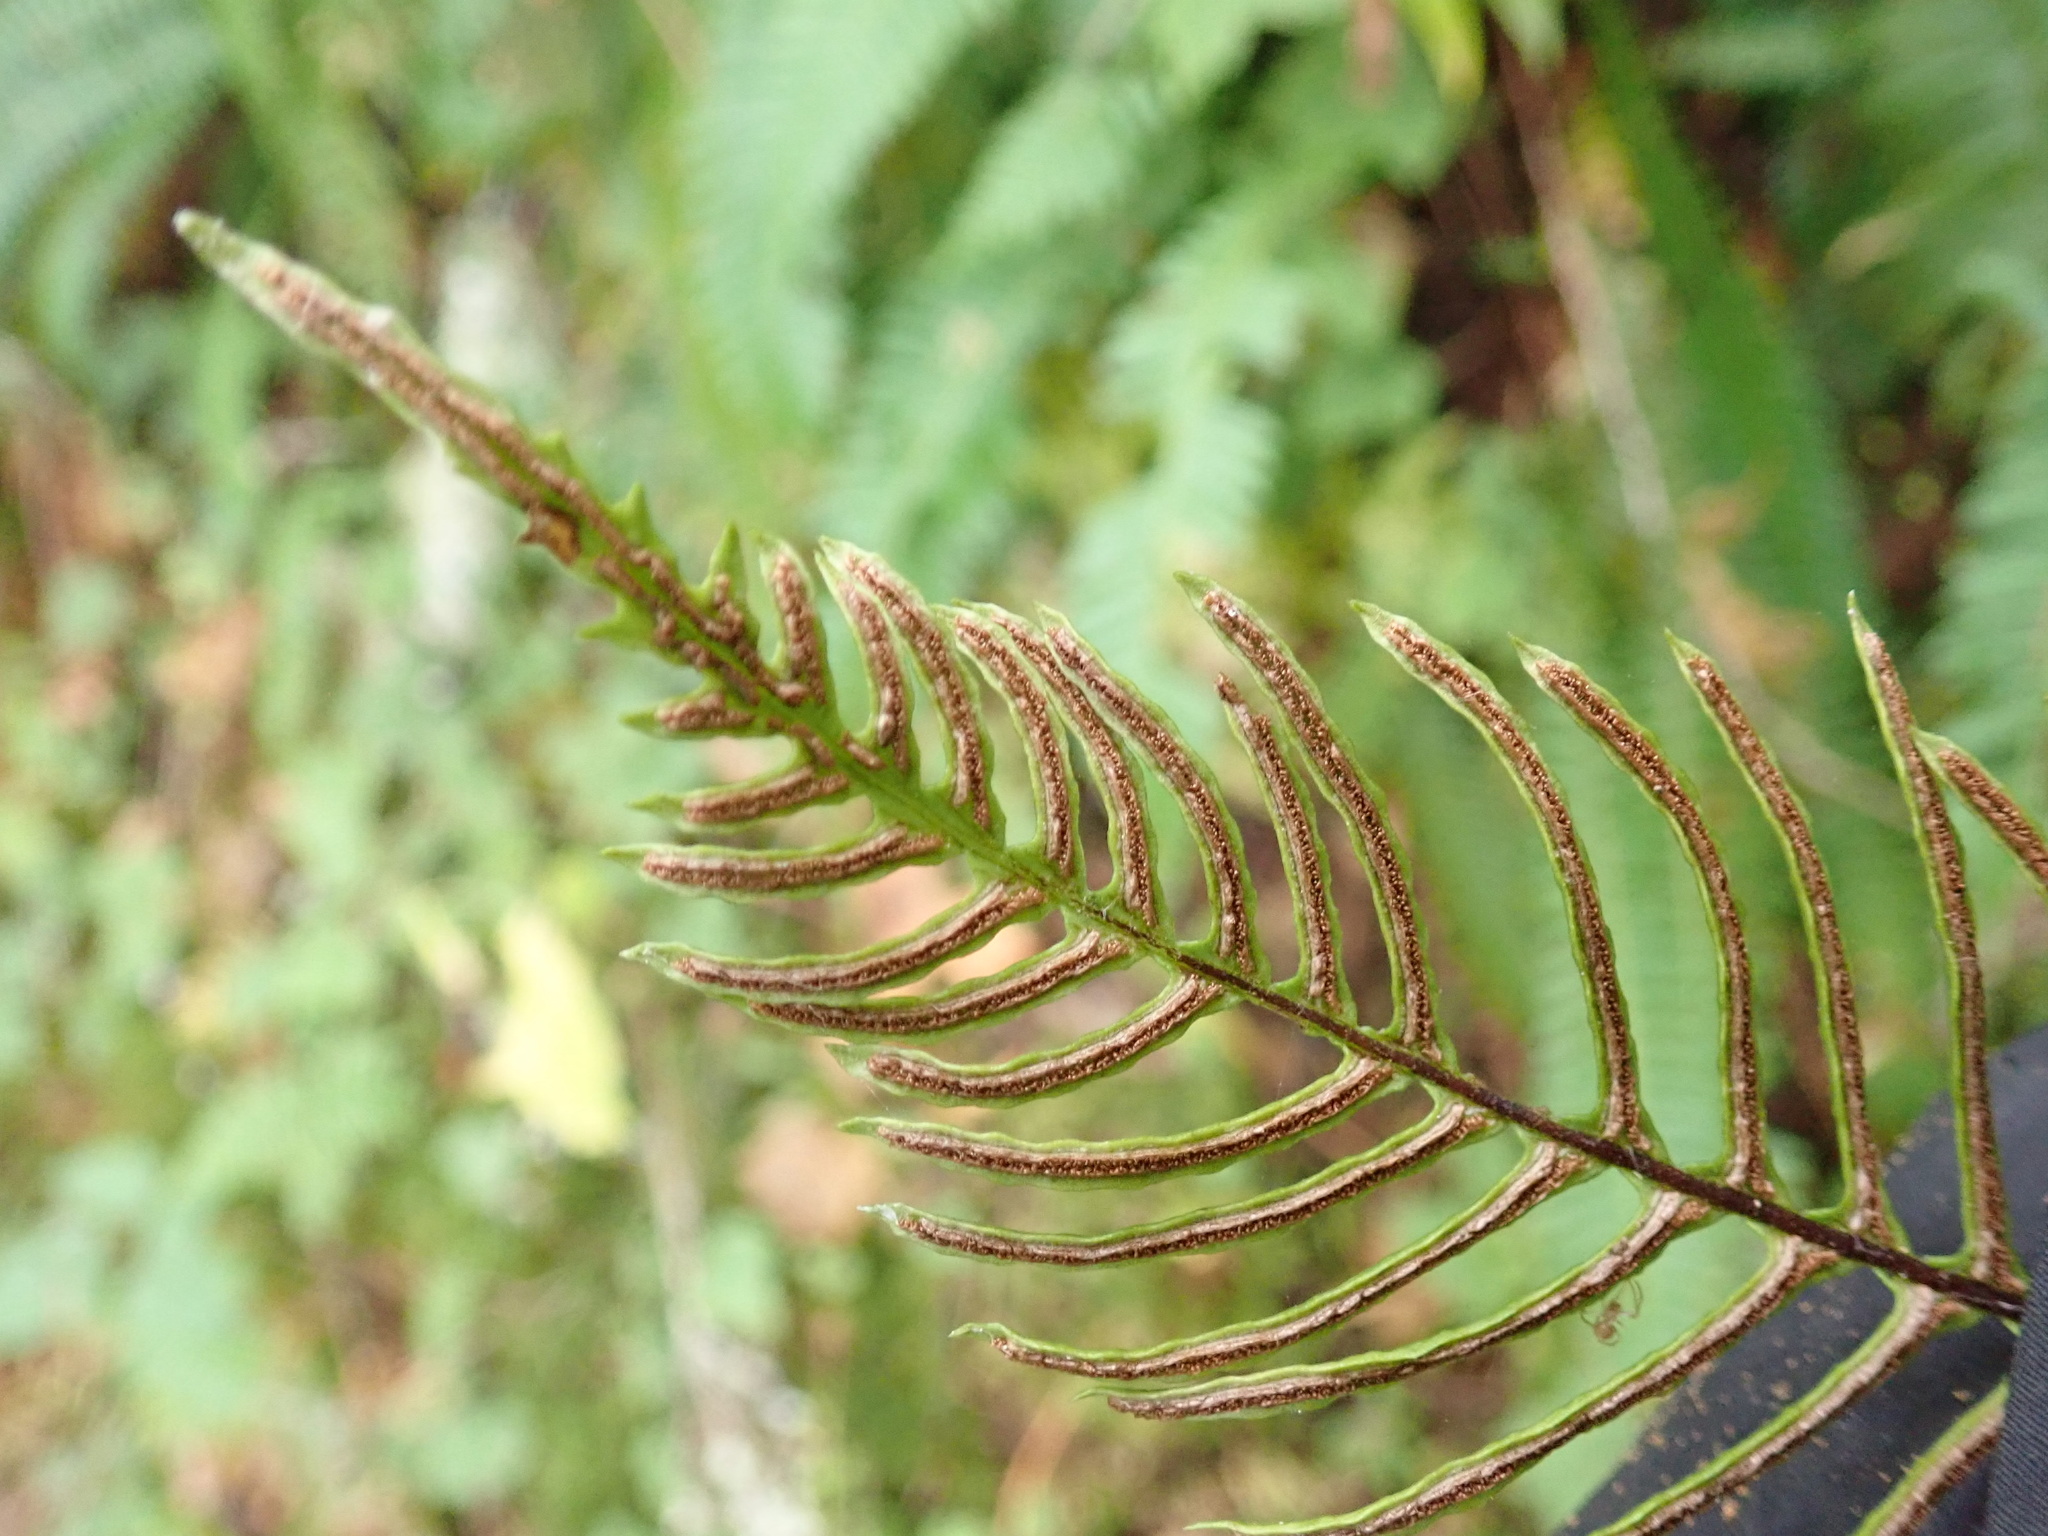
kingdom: Plantae
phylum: Tracheophyta
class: Polypodiopsida
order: Polypodiales
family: Blechnaceae
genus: Struthiopteris
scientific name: Struthiopteris spicant
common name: Deer fern
